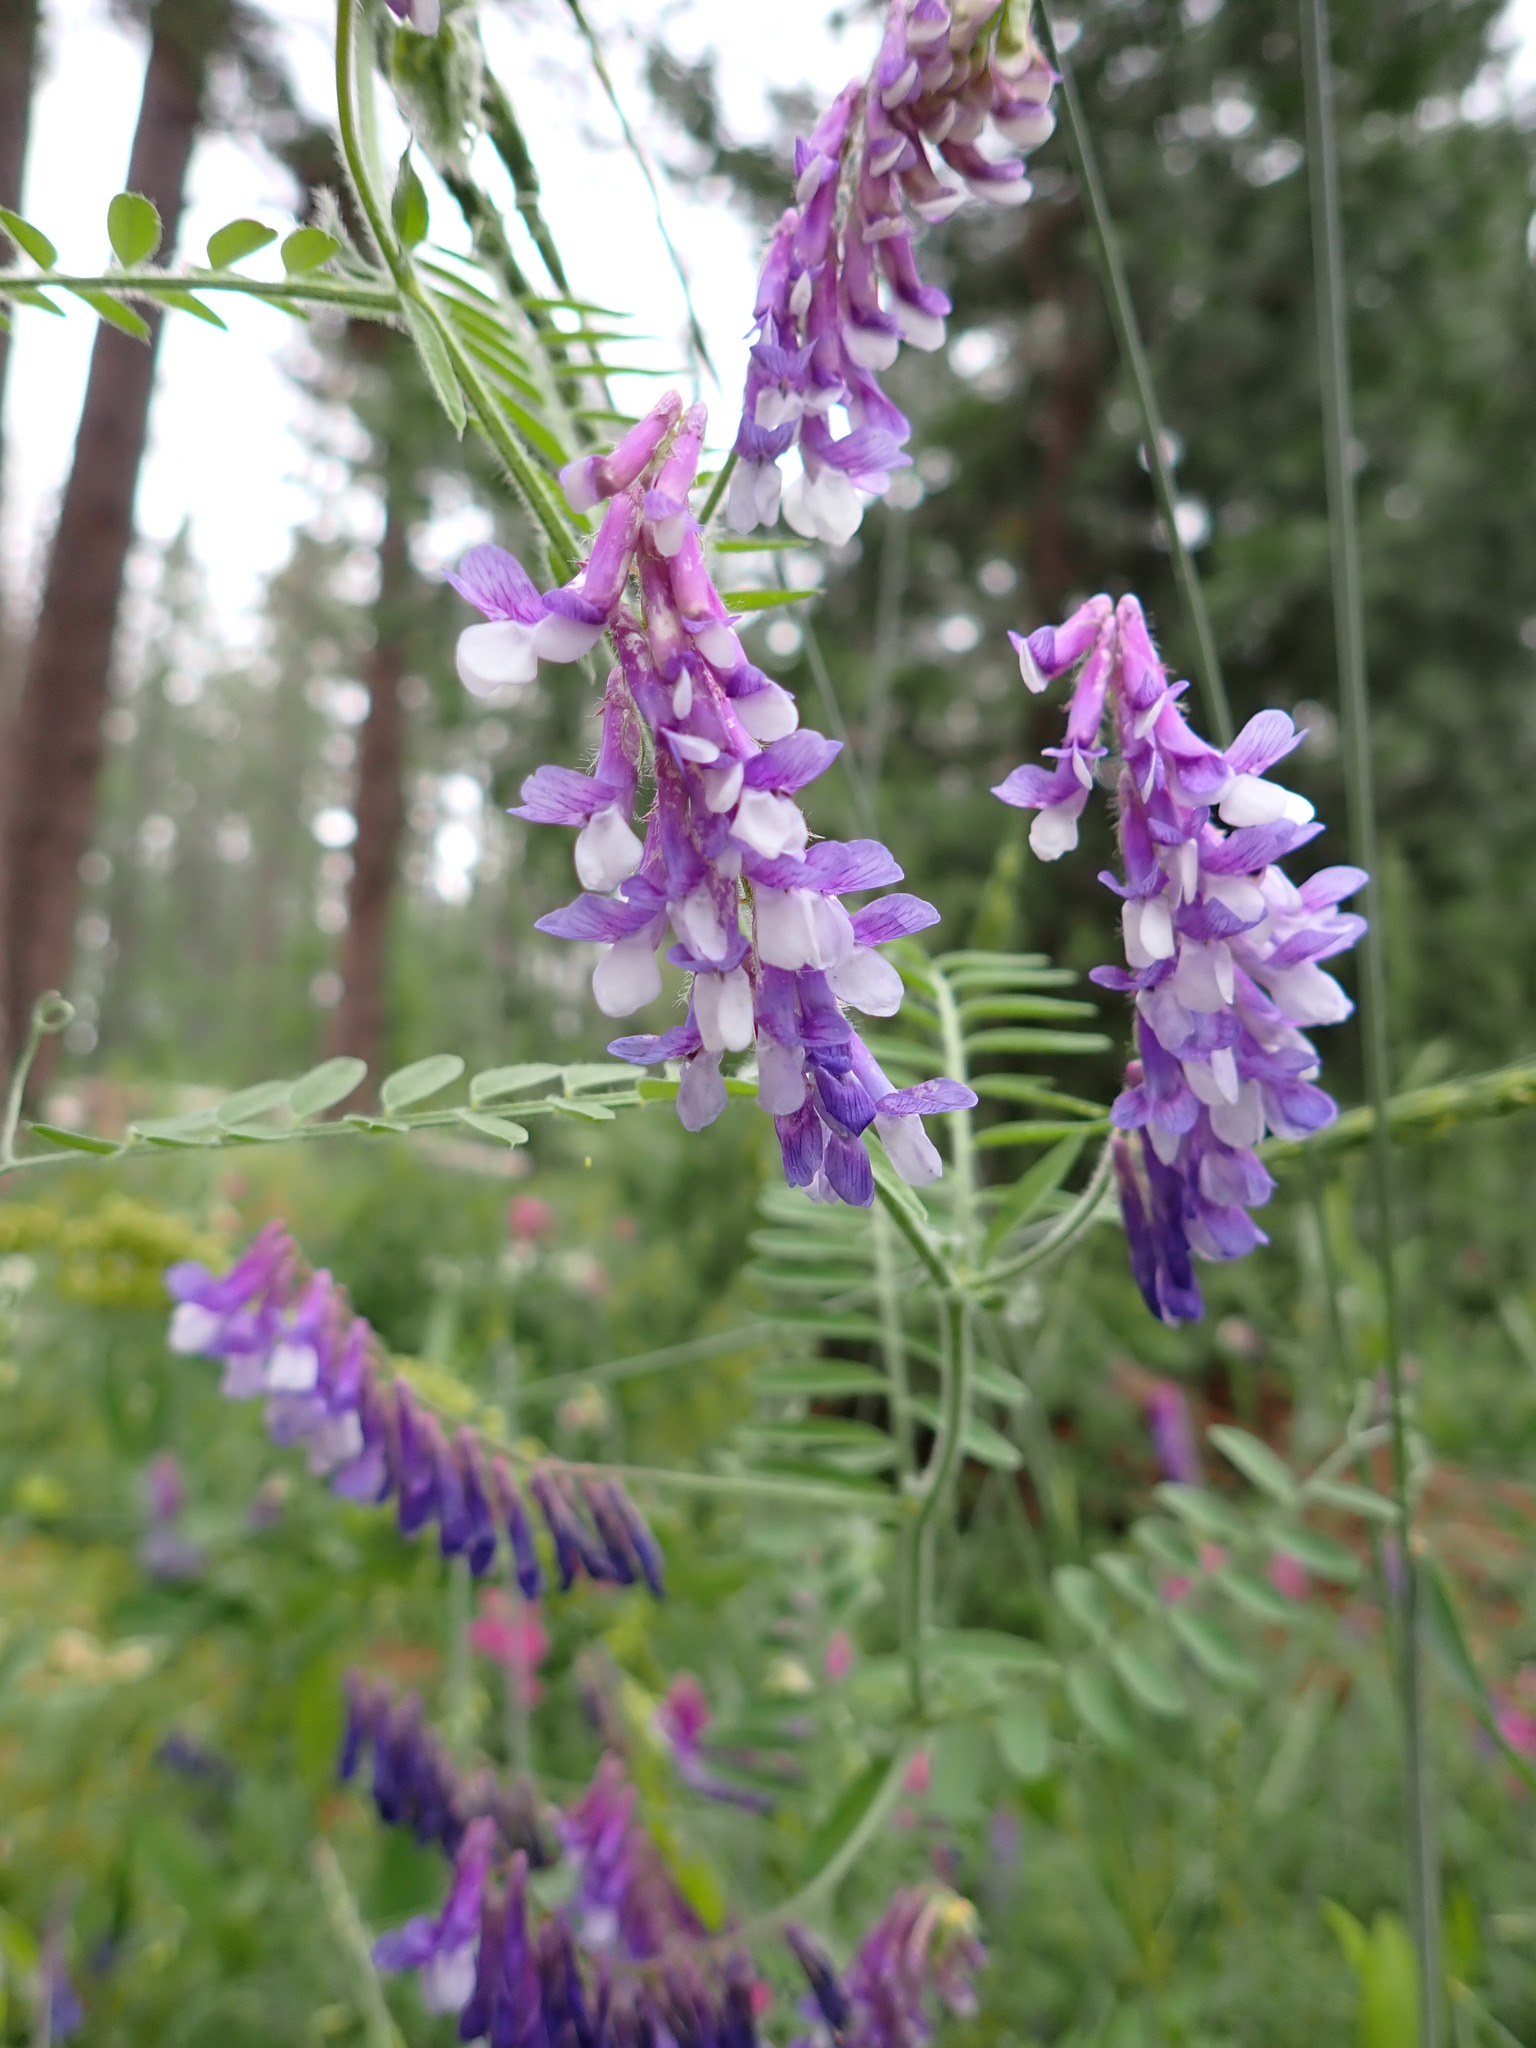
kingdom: Plantae
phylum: Tracheophyta
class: Magnoliopsida
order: Fabales
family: Fabaceae
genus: Vicia
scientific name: Vicia villosa
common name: Fodder vetch
